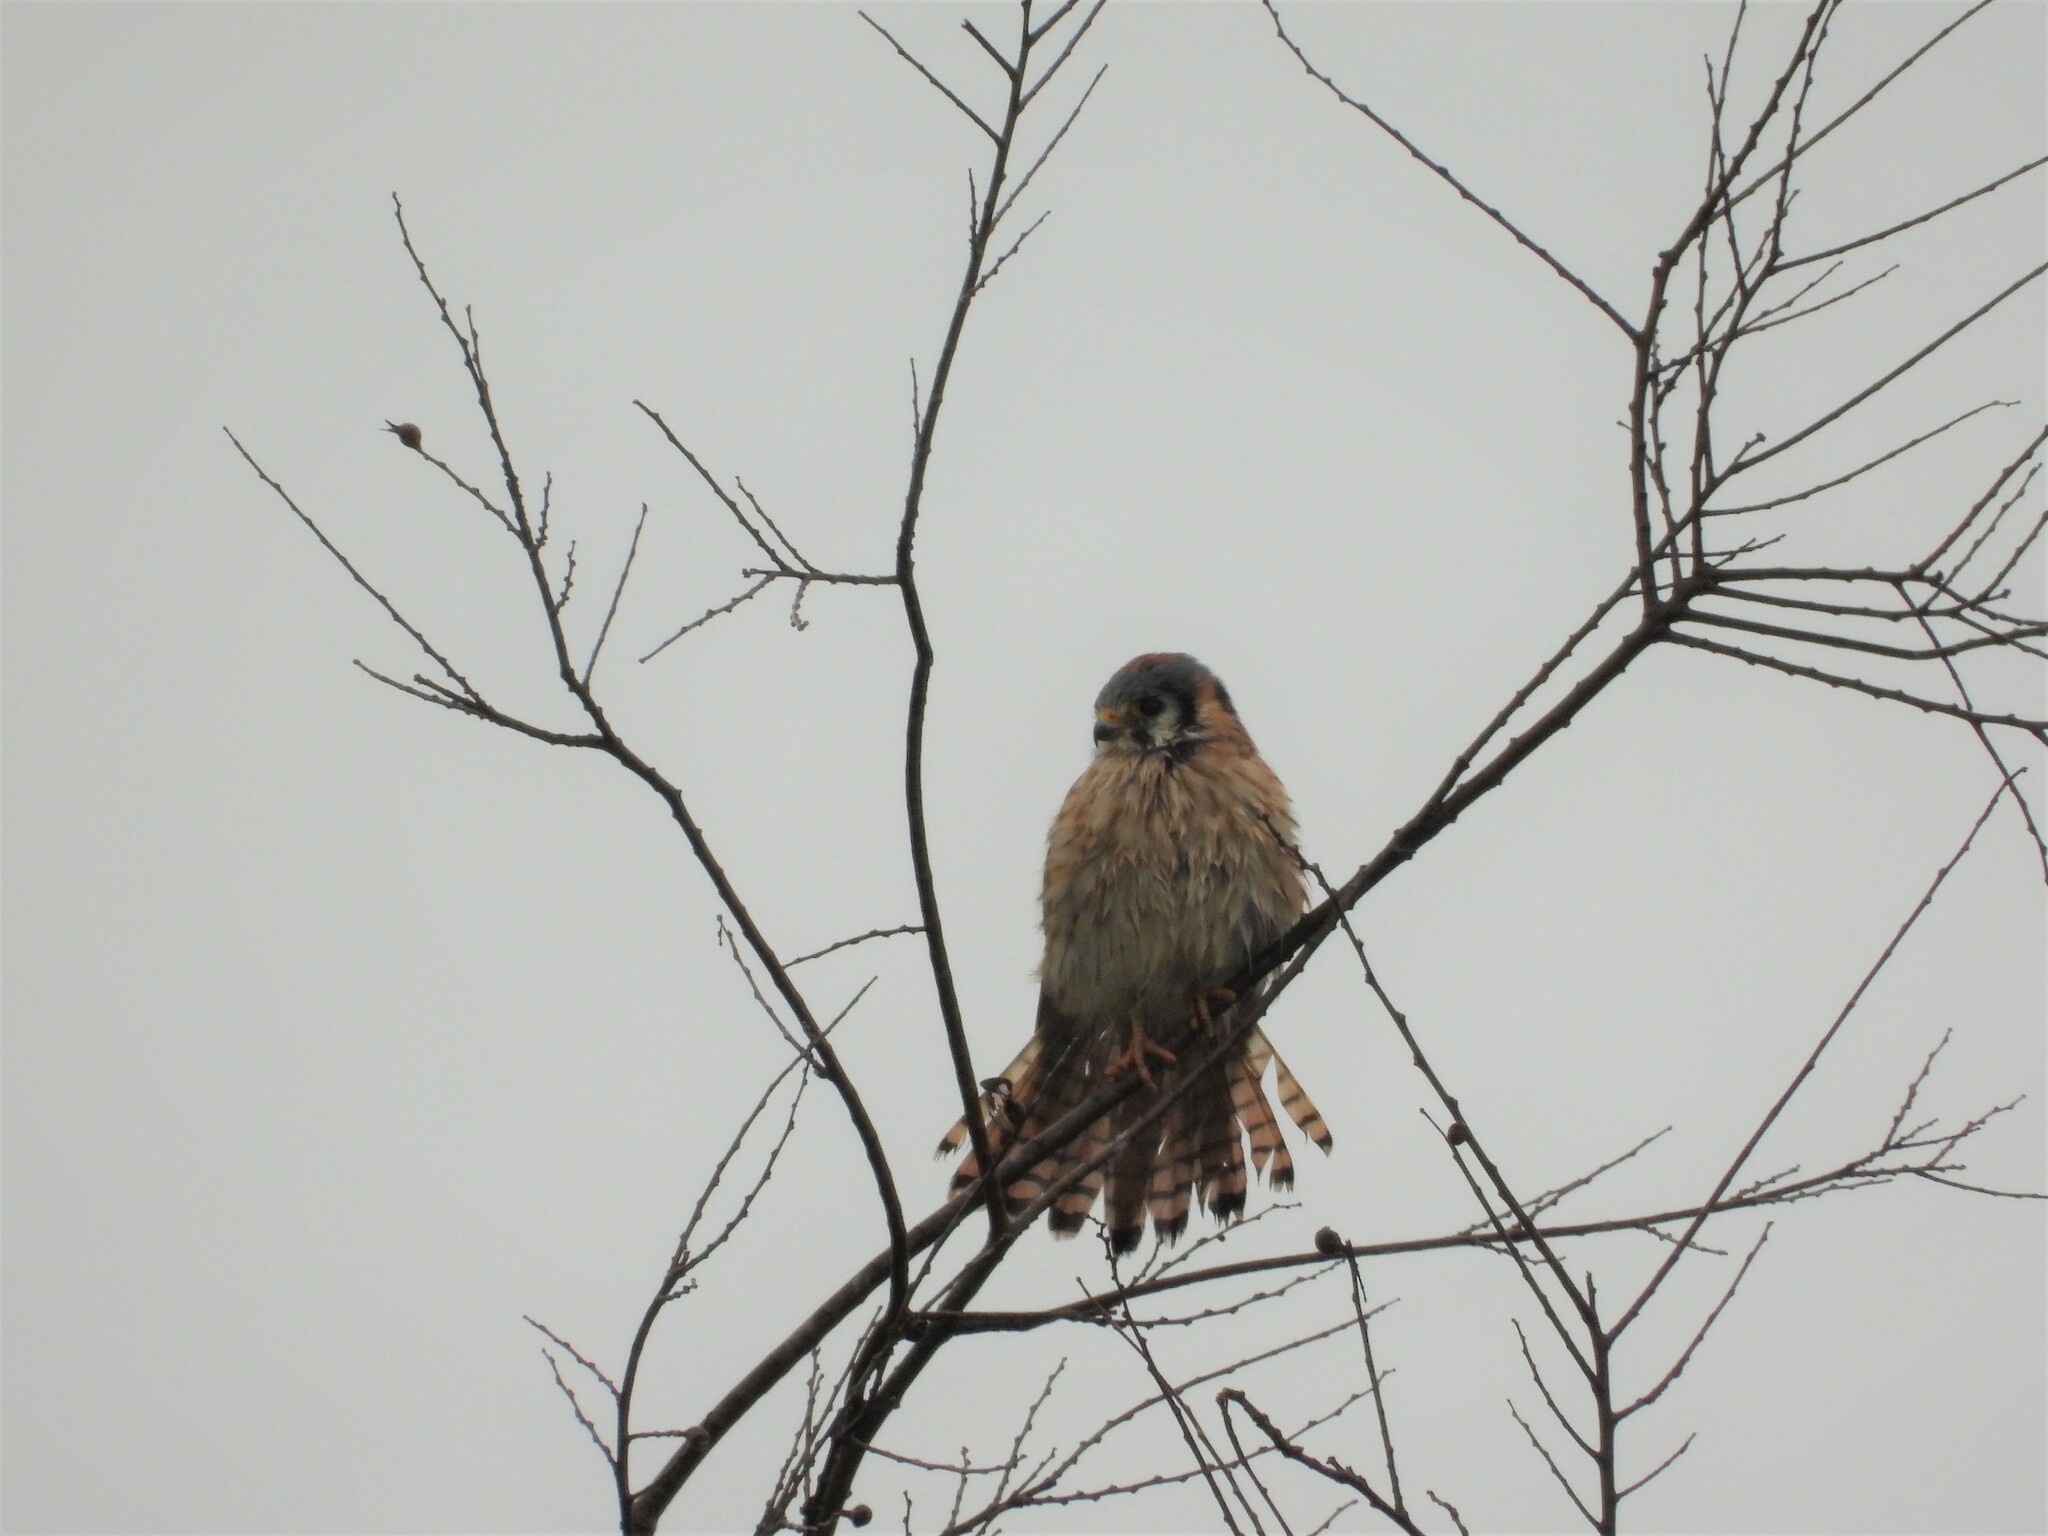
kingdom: Animalia
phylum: Chordata
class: Aves
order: Falconiformes
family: Falconidae
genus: Falco
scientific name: Falco sparverius
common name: American kestrel
